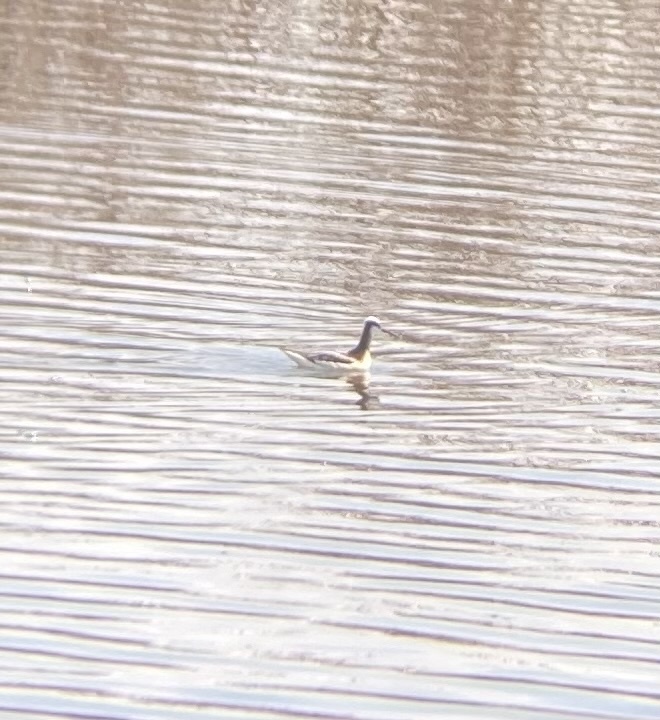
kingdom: Animalia
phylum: Chordata
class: Aves
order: Charadriiformes
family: Scolopacidae
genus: Phalaropus
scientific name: Phalaropus tricolor
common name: Wilson's phalarope
